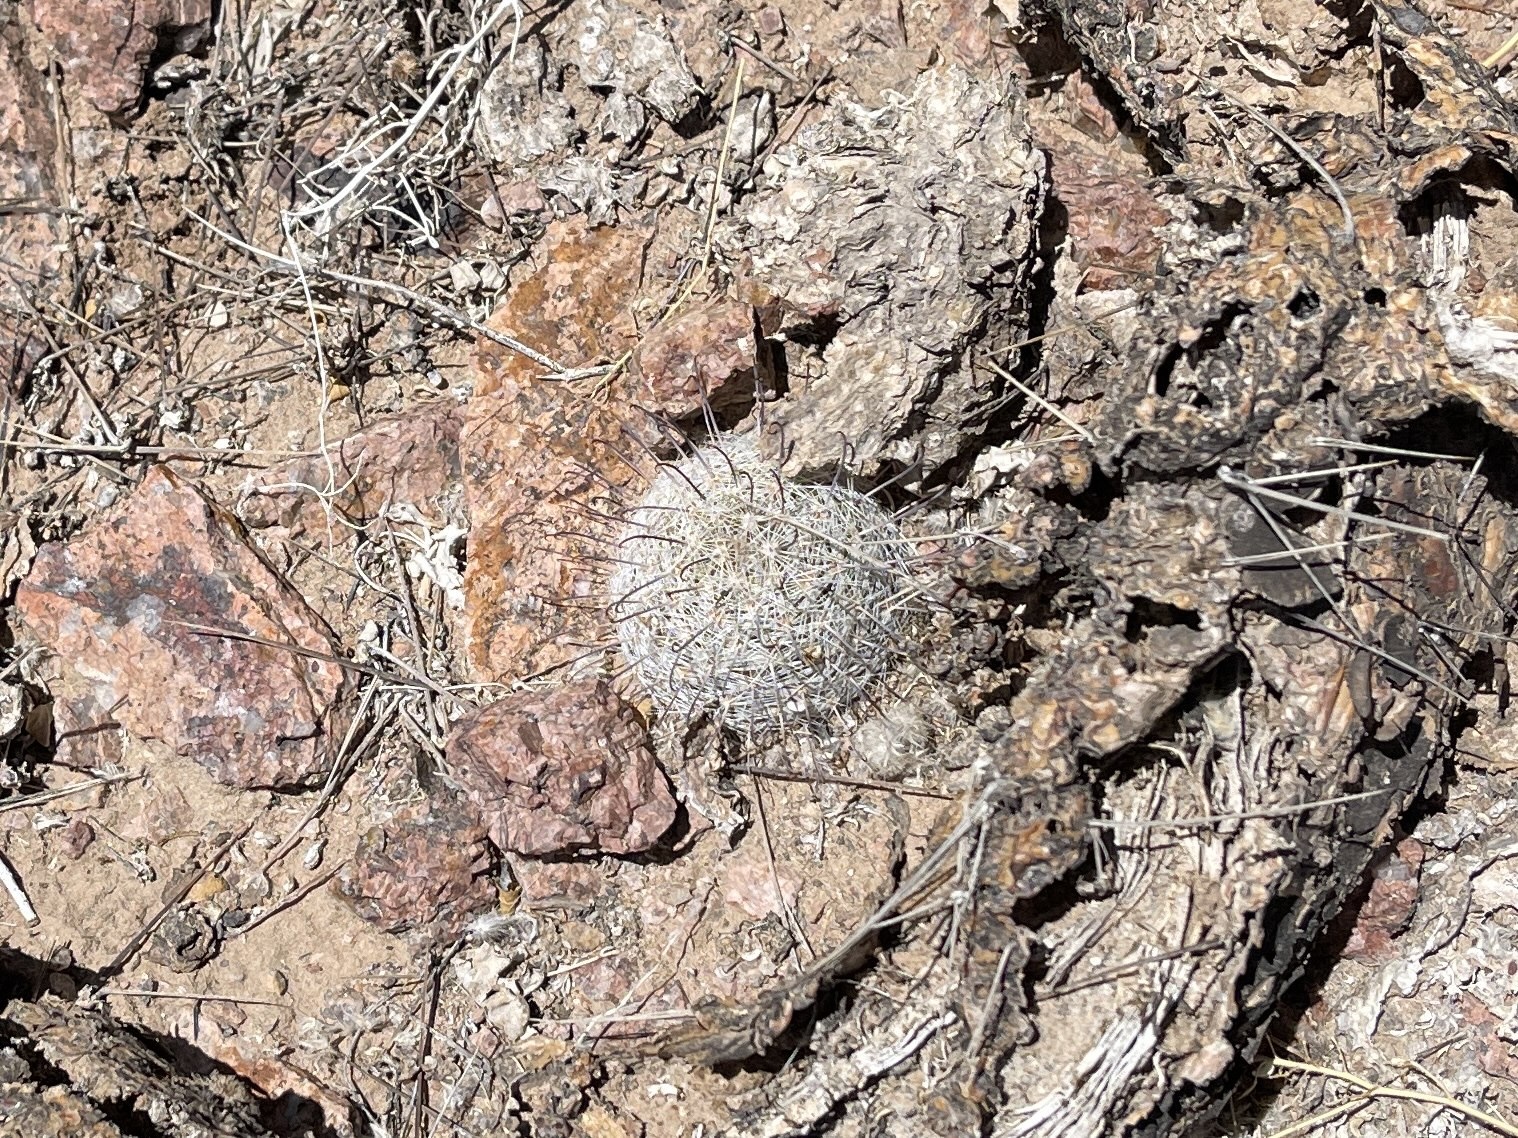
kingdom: Plantae
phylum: Tracheophyta
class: Magnoliopsida
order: Caryophyllales
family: Cactaceae
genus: Cochemiea
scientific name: Cochemiea grahamii
